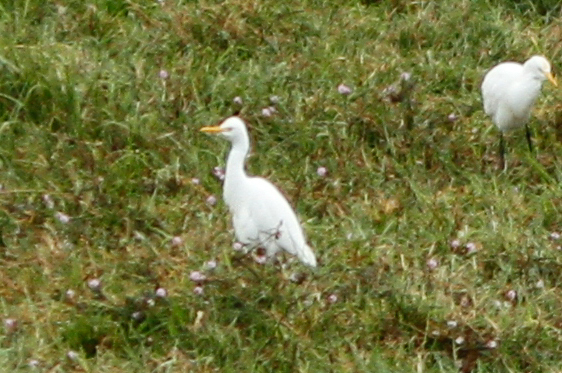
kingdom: Animalia
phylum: Chordata
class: Aves
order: Pelecaniformes
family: Ardeidae
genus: Bubulcus
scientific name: Bubulcus coromandus
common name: Eastern cattle egret
